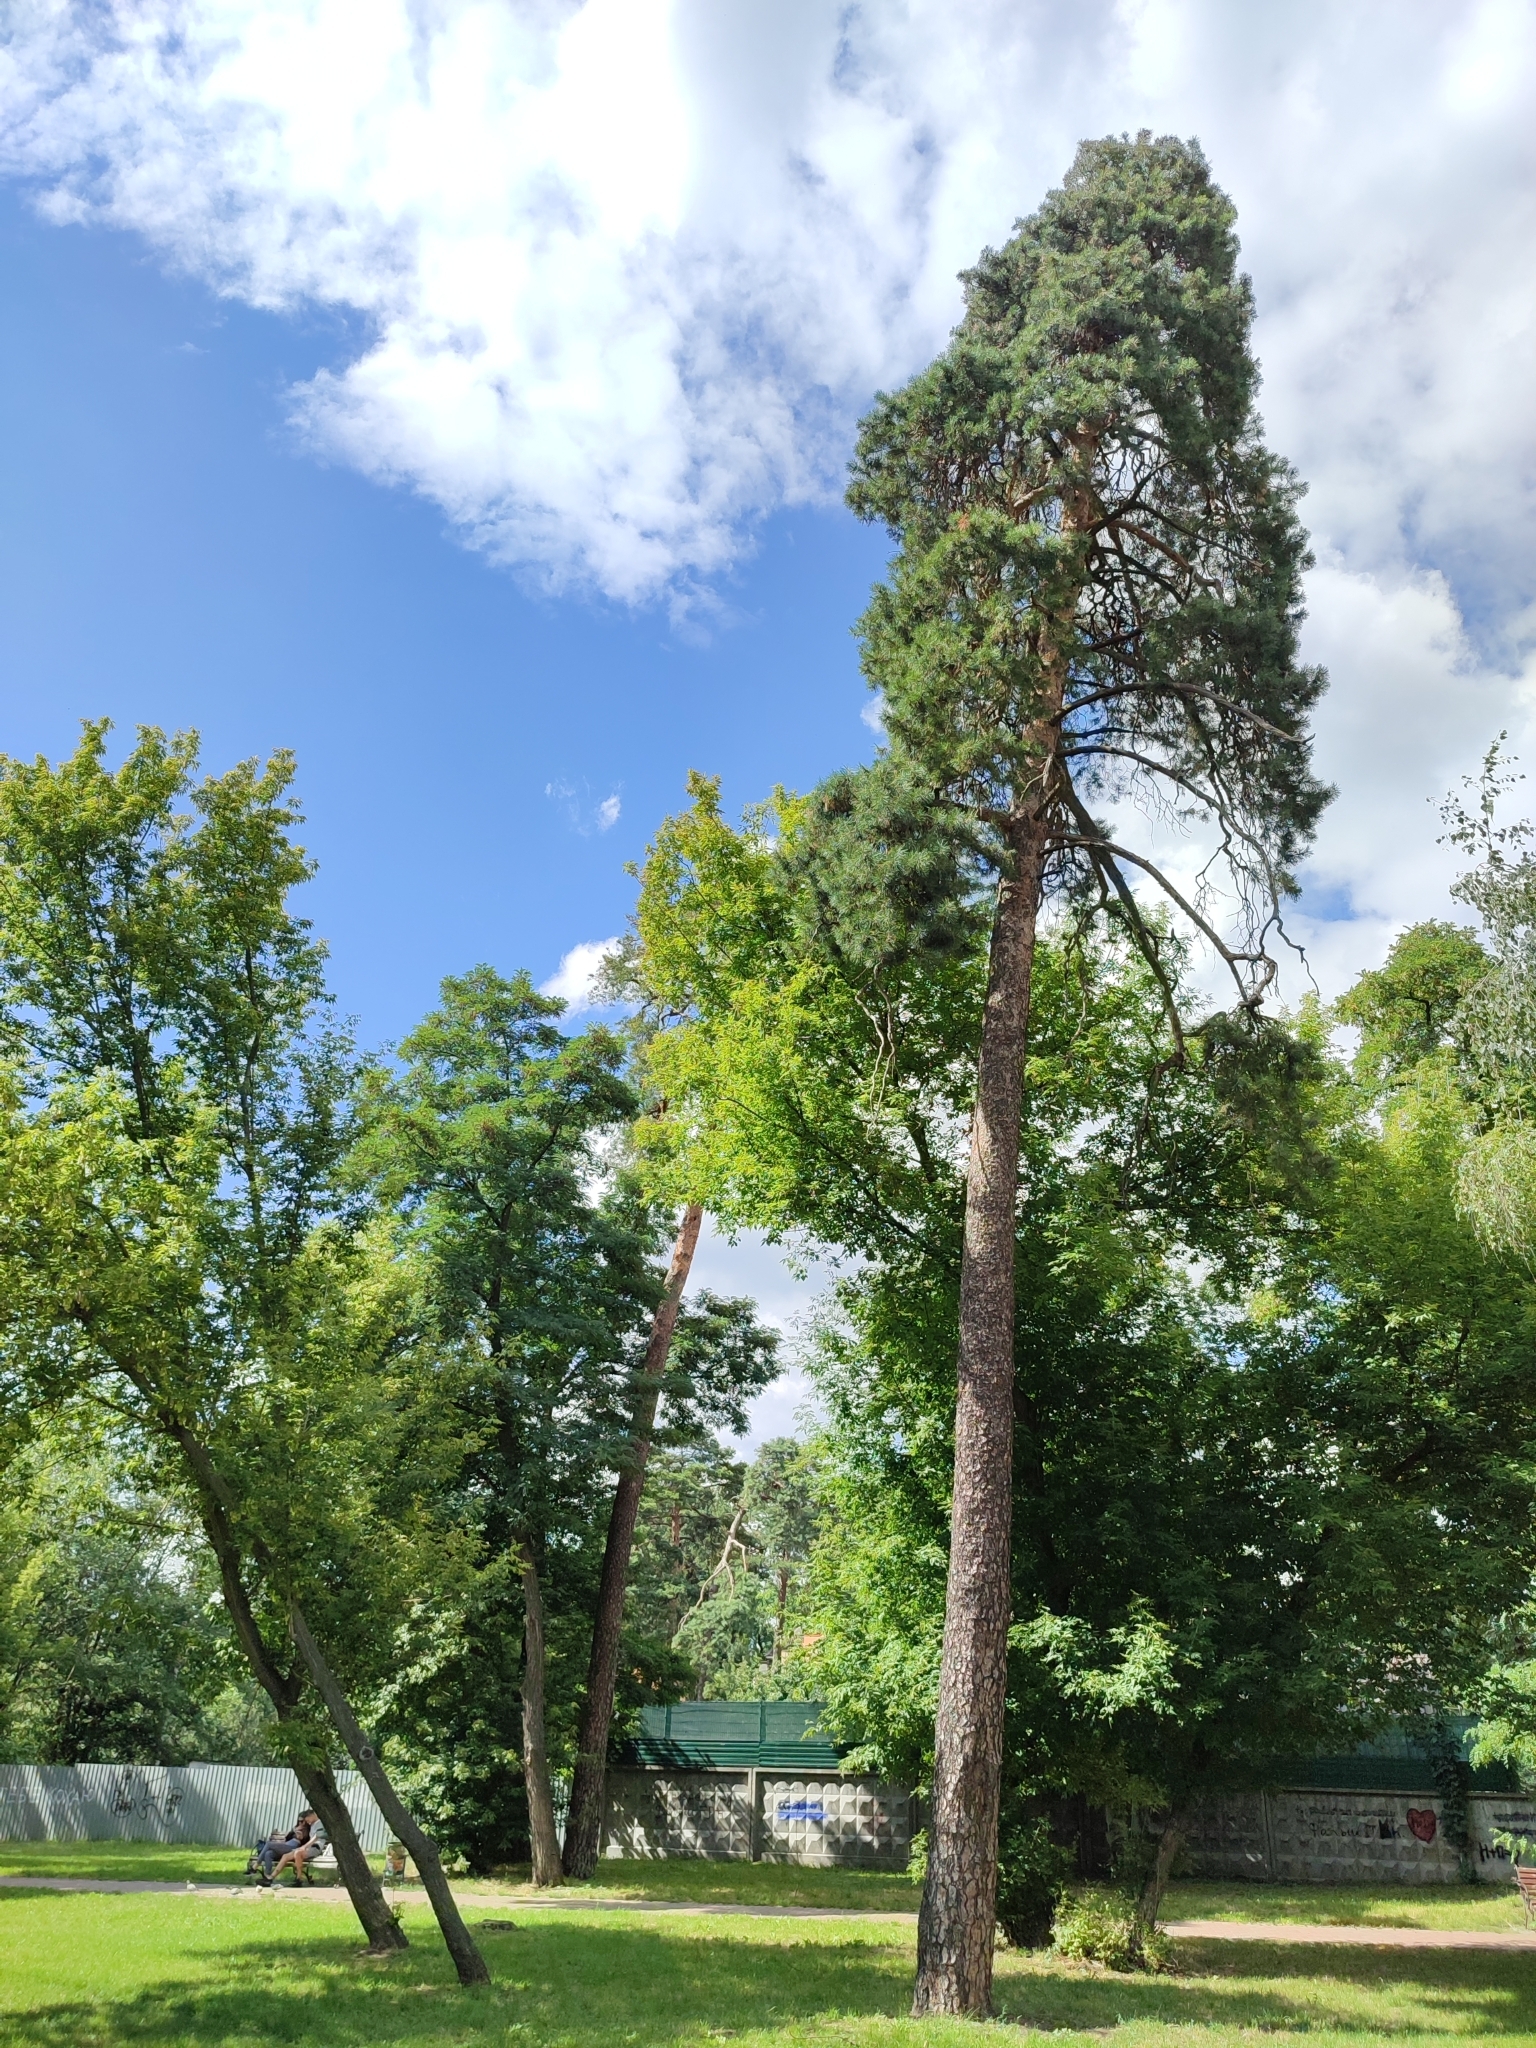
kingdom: Plantae
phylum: Tracheophyta
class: Pinopsida
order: Pinales
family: Pinaceae
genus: Pinus
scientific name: Pinus sylvestris
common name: Scots pine
